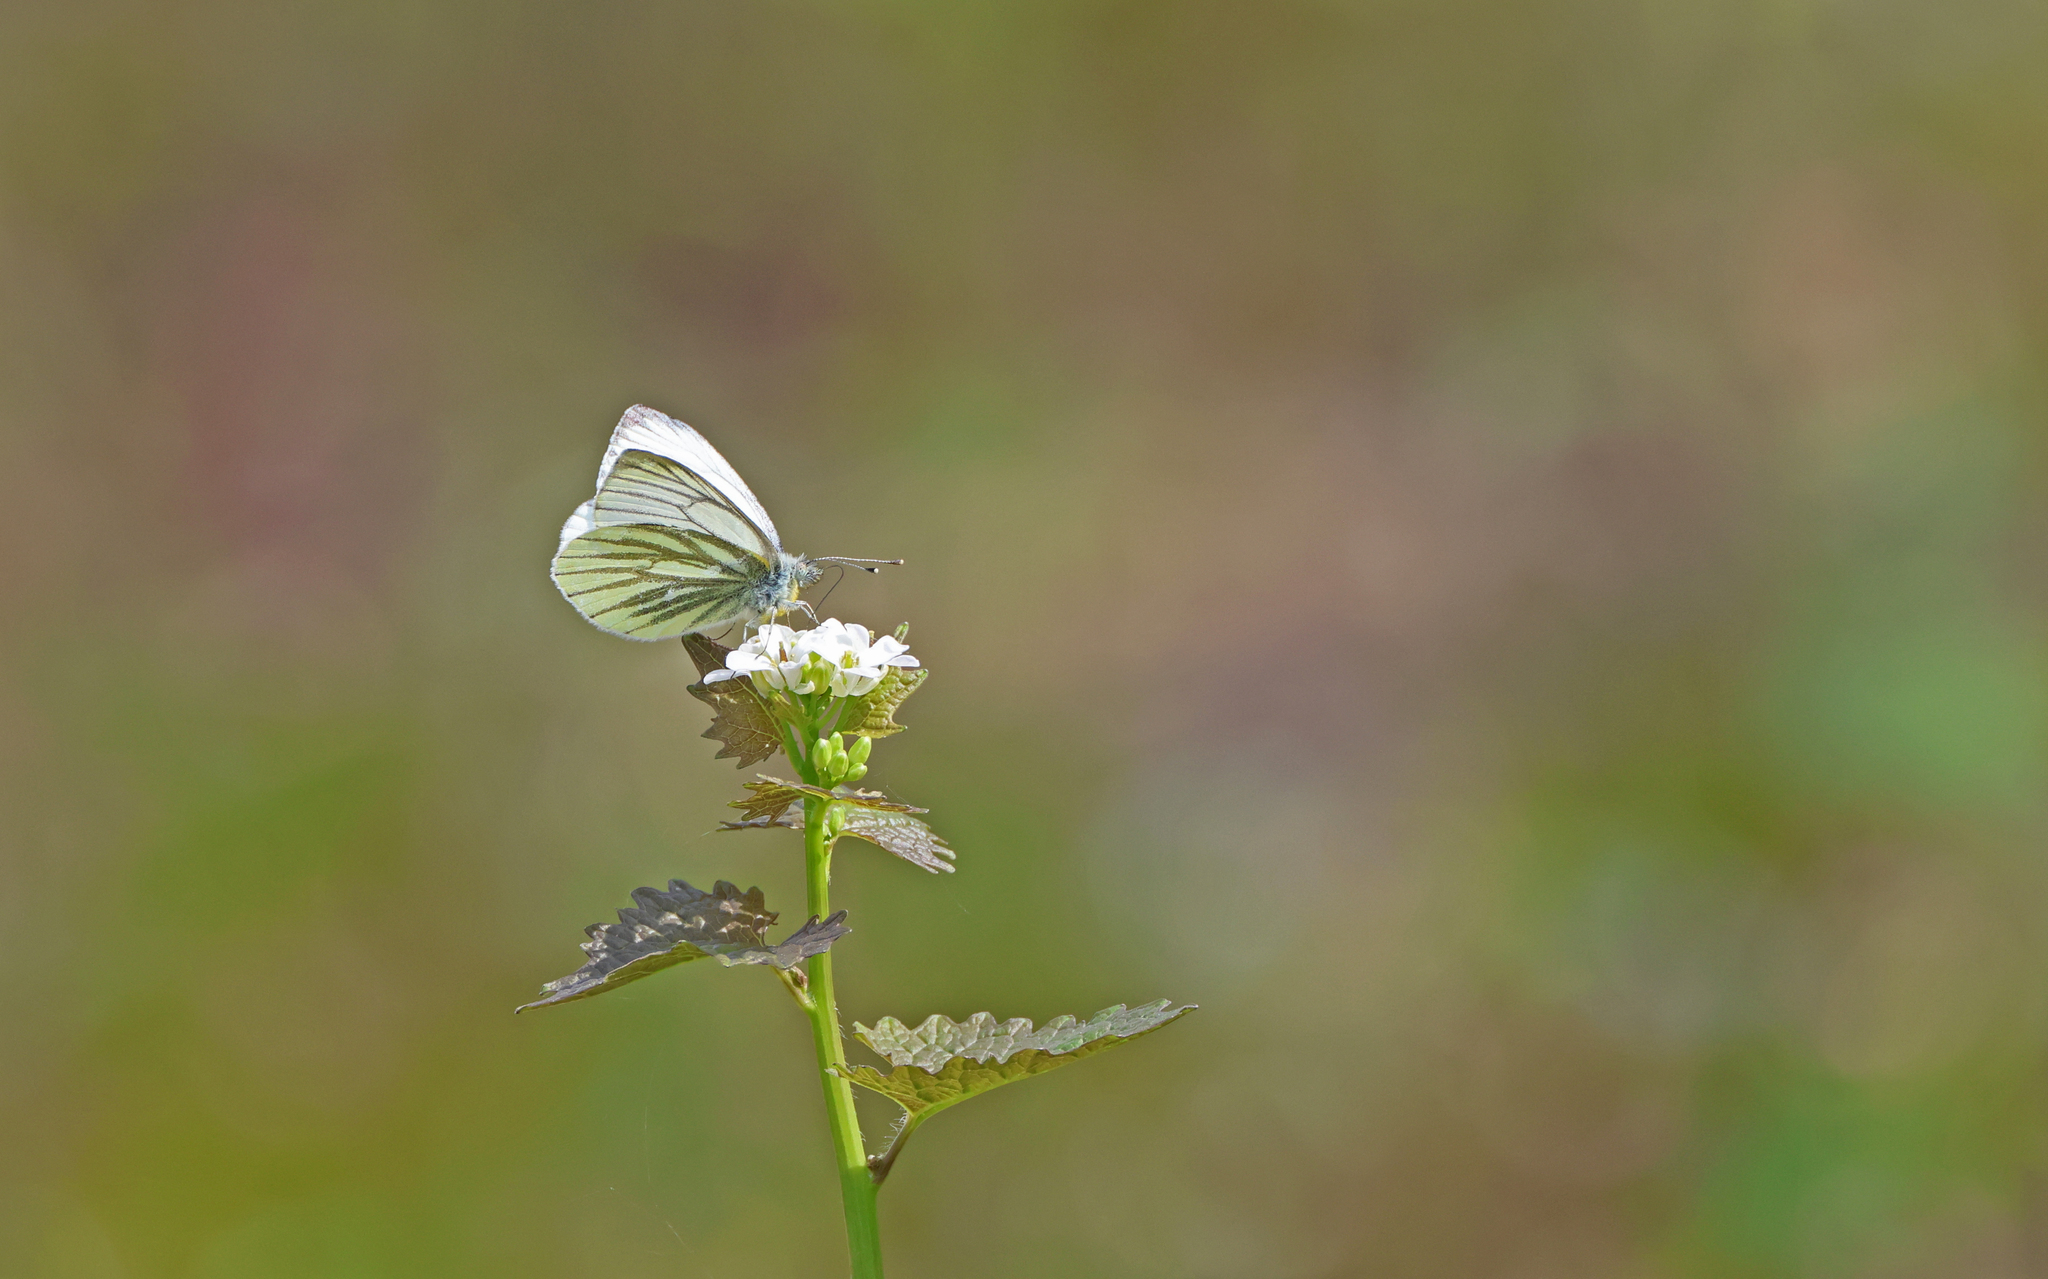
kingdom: Animalia
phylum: Arthropoda
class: Insecta
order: Lepidoptera
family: Pieridae
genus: Pieris
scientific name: Pieris napi
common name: Green-veined white
